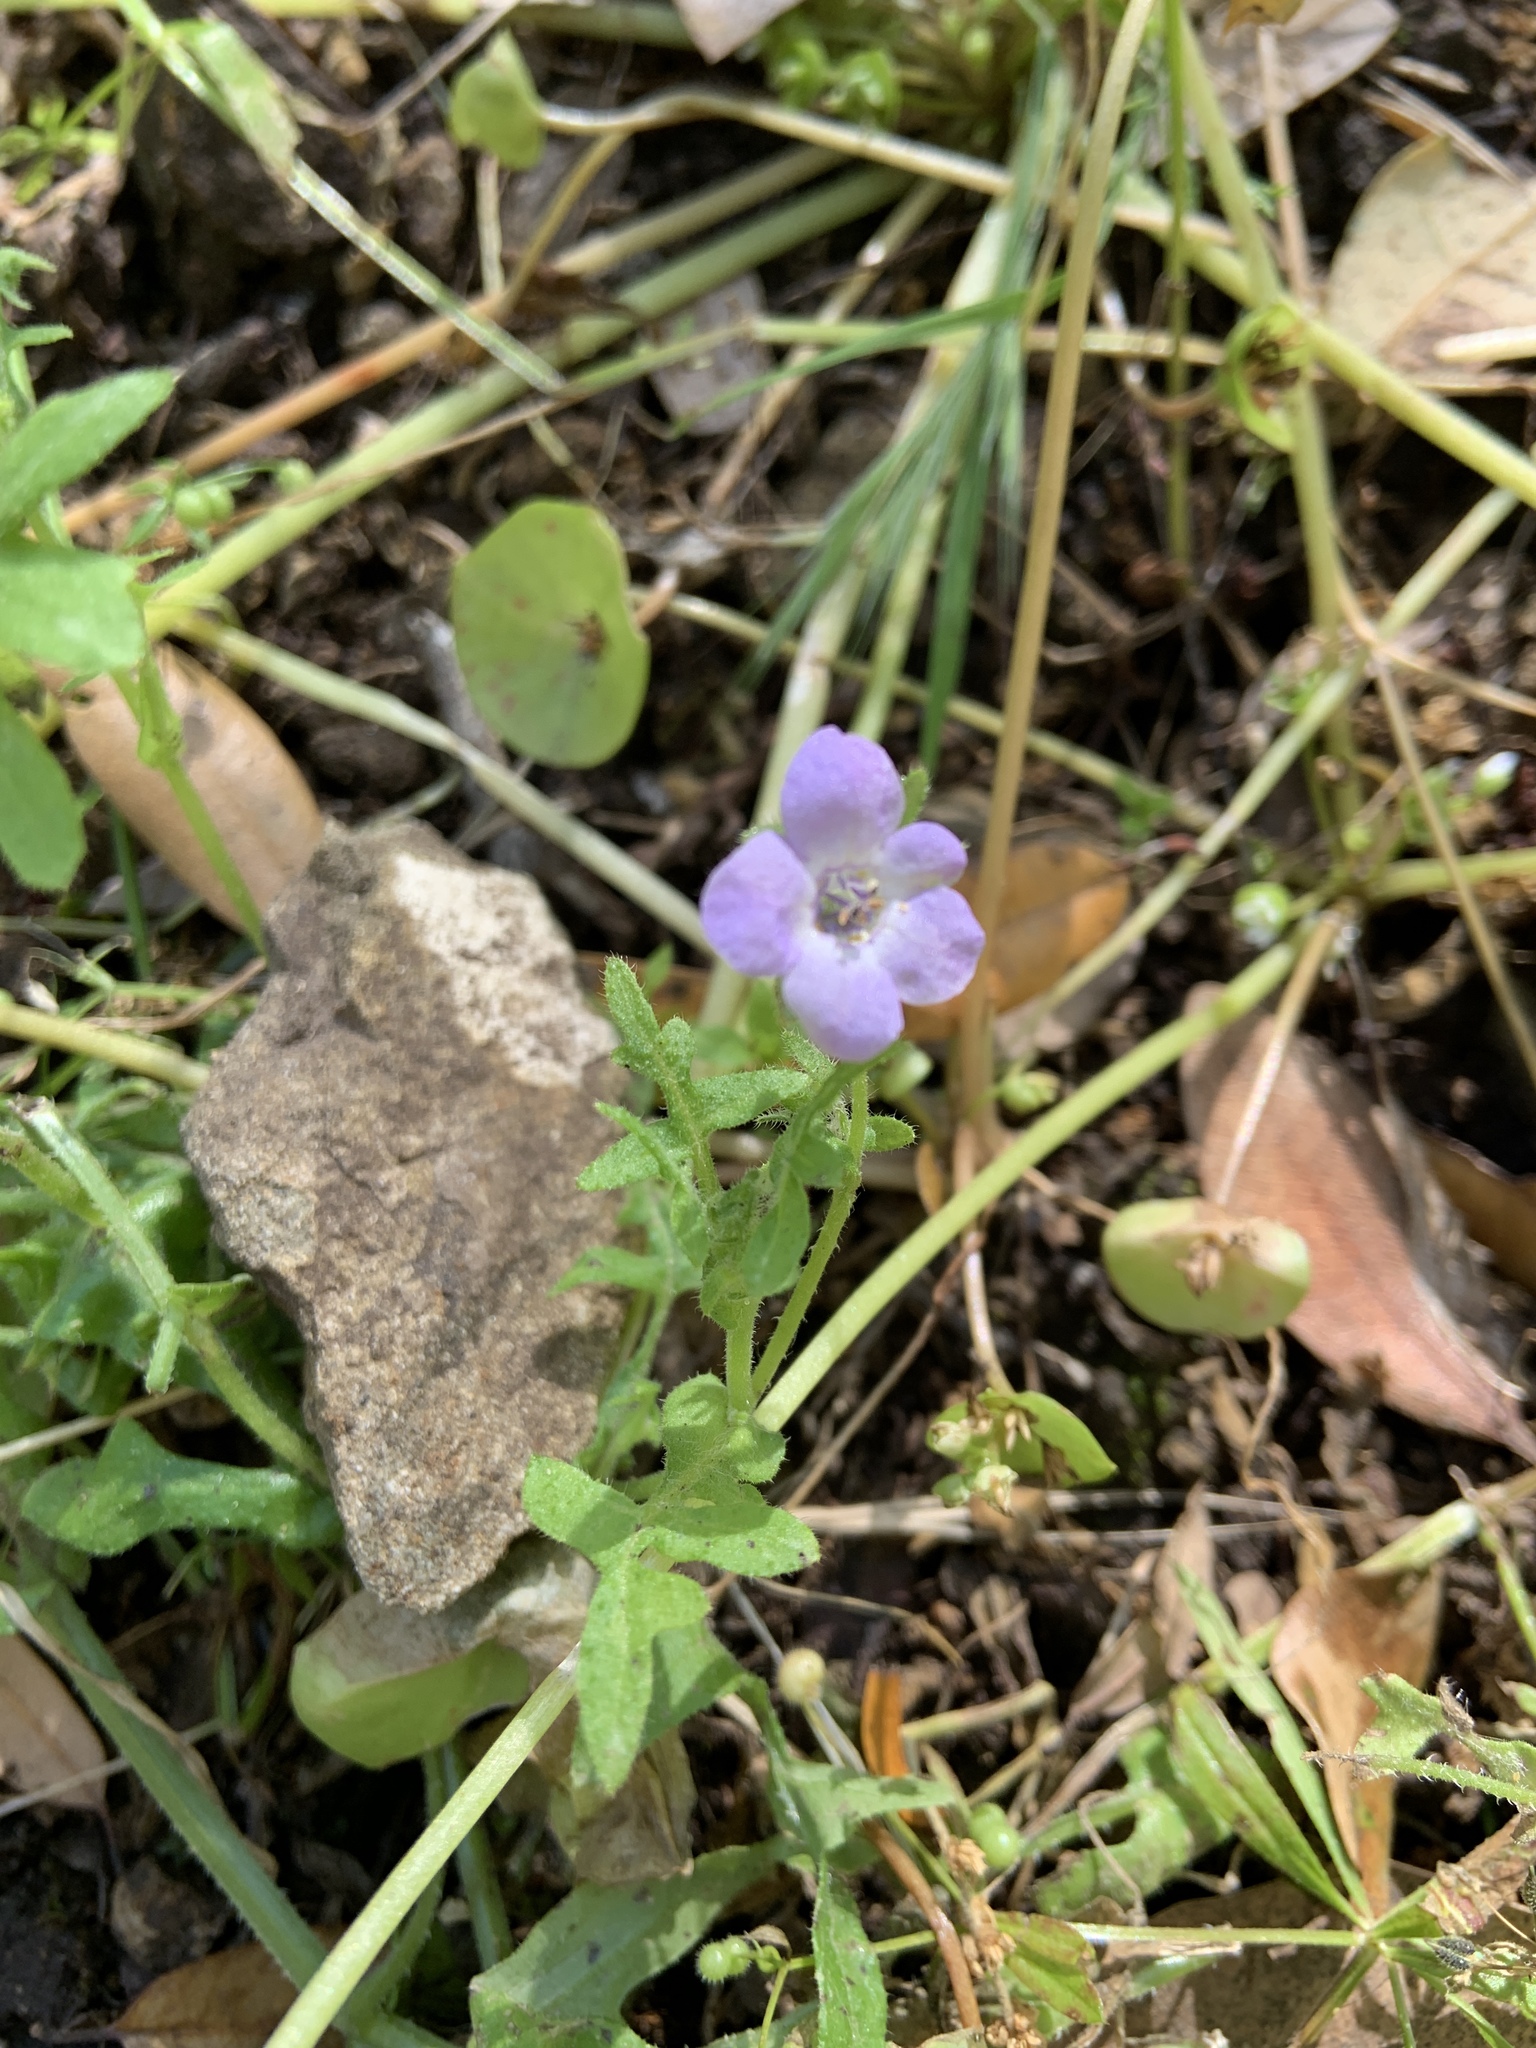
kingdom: Plantae
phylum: Tracheophyta
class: Magnoliopsida
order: Boraginales
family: Hydrophyllaceae
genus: Pholistoma
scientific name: Pholistoma auritum
